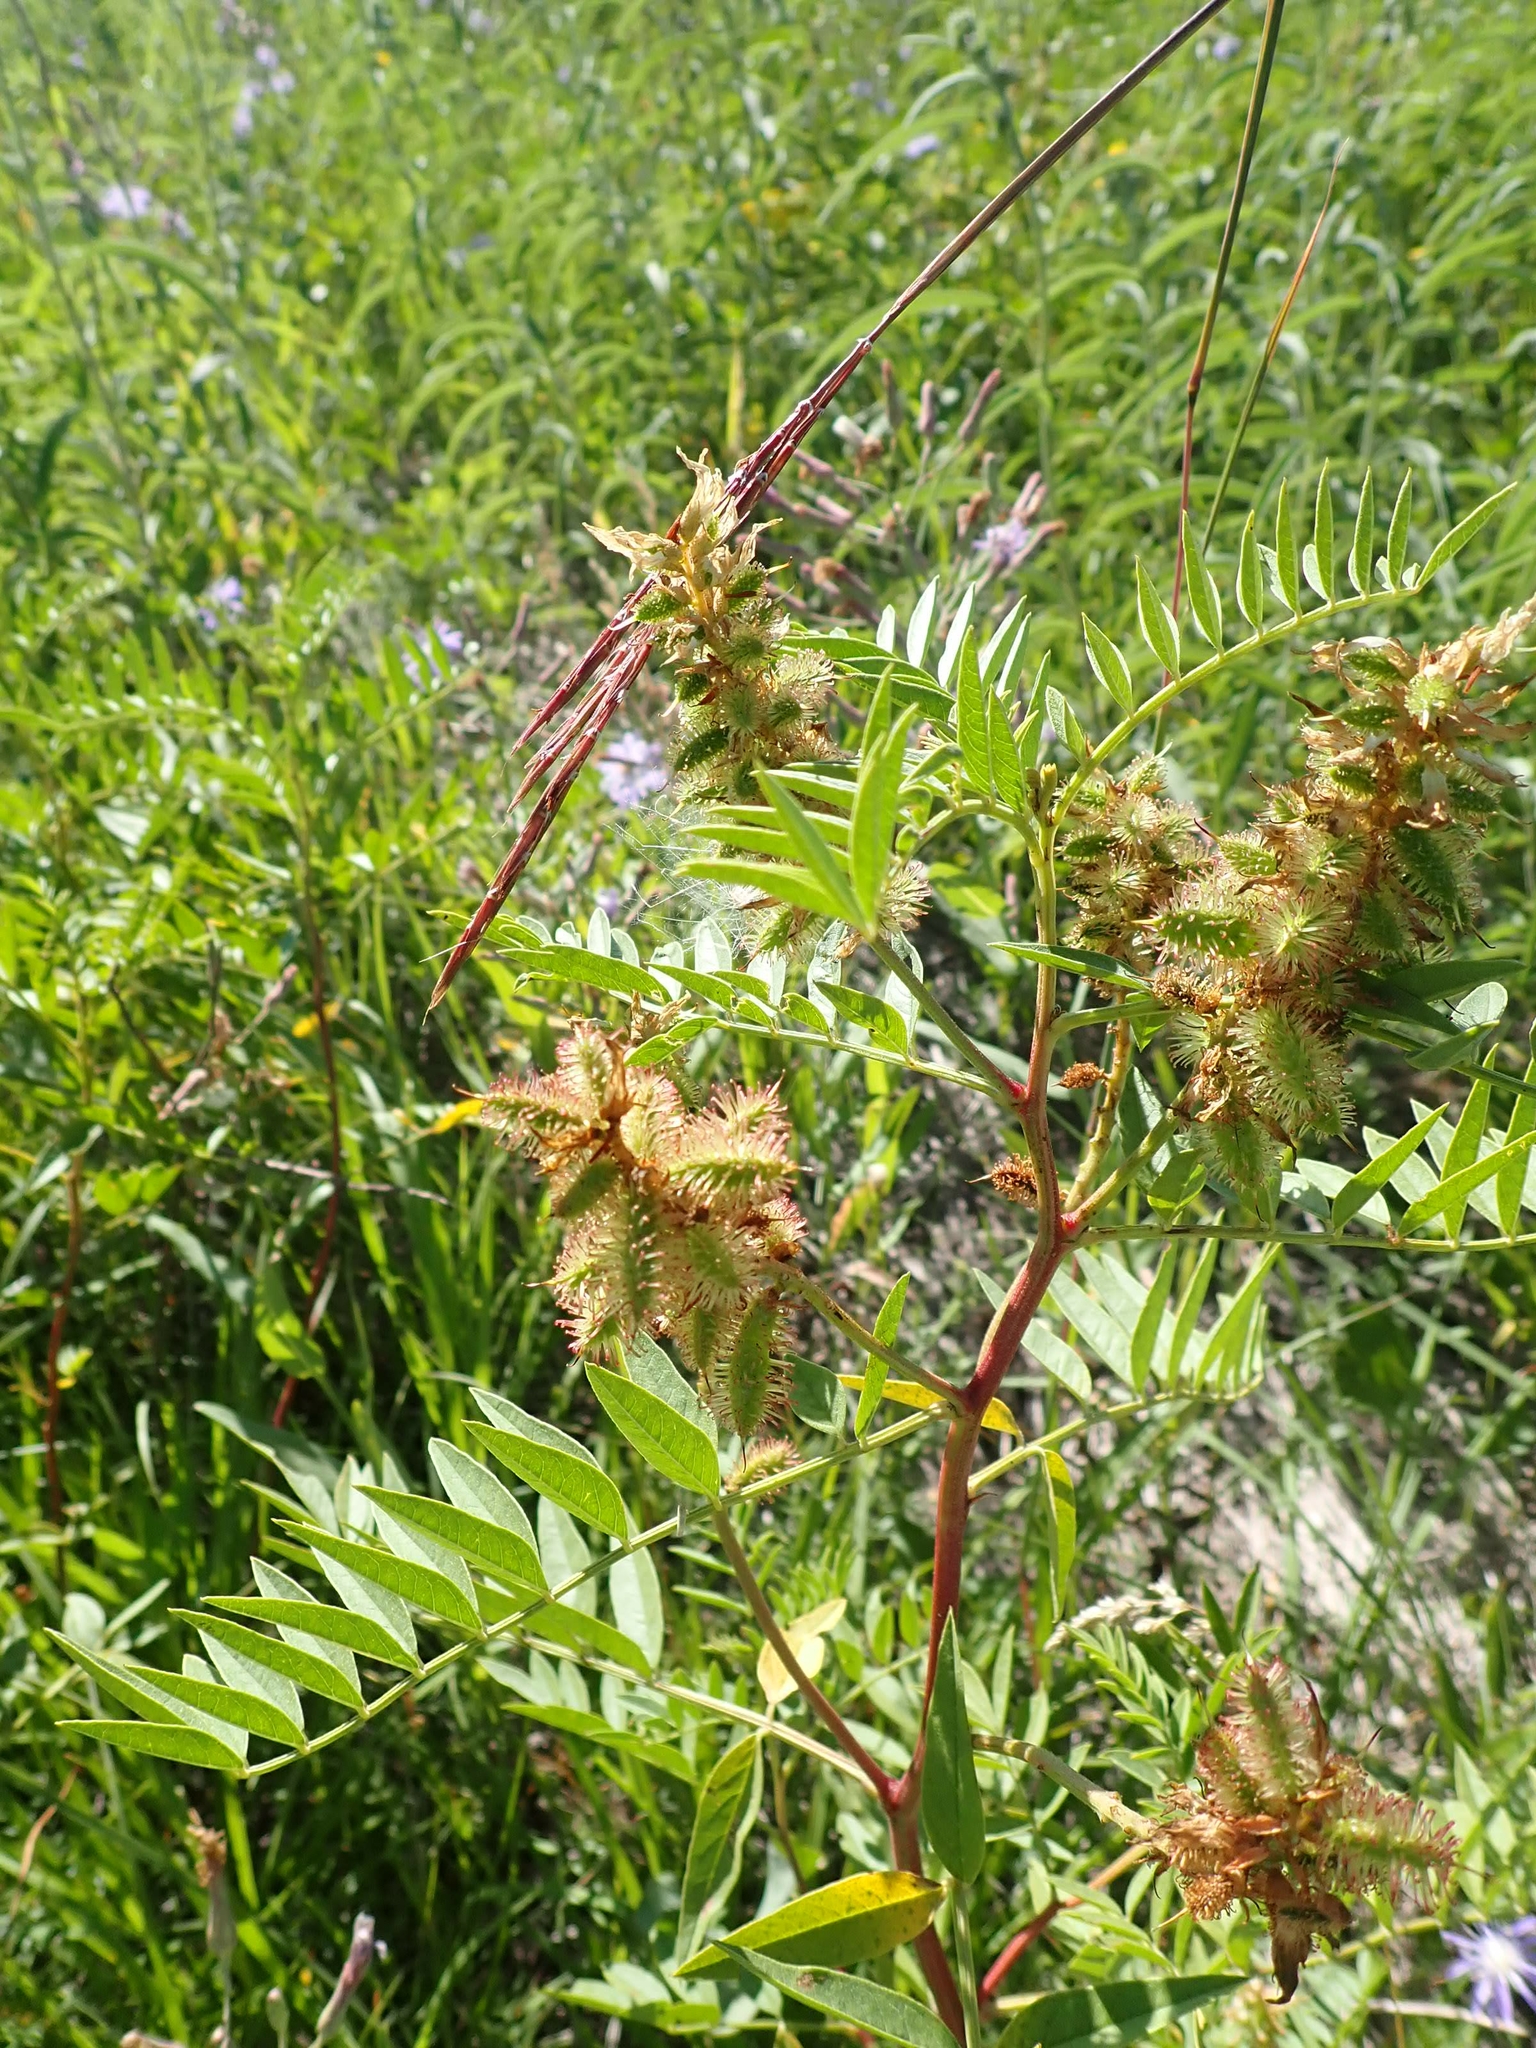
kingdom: Plantae
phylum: Tracheophyta
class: Magnoliopsida
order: Fabales
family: Fabaceae
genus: Glycyrrhiza
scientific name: Glycyrrhiza lepidota
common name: American liquorice
